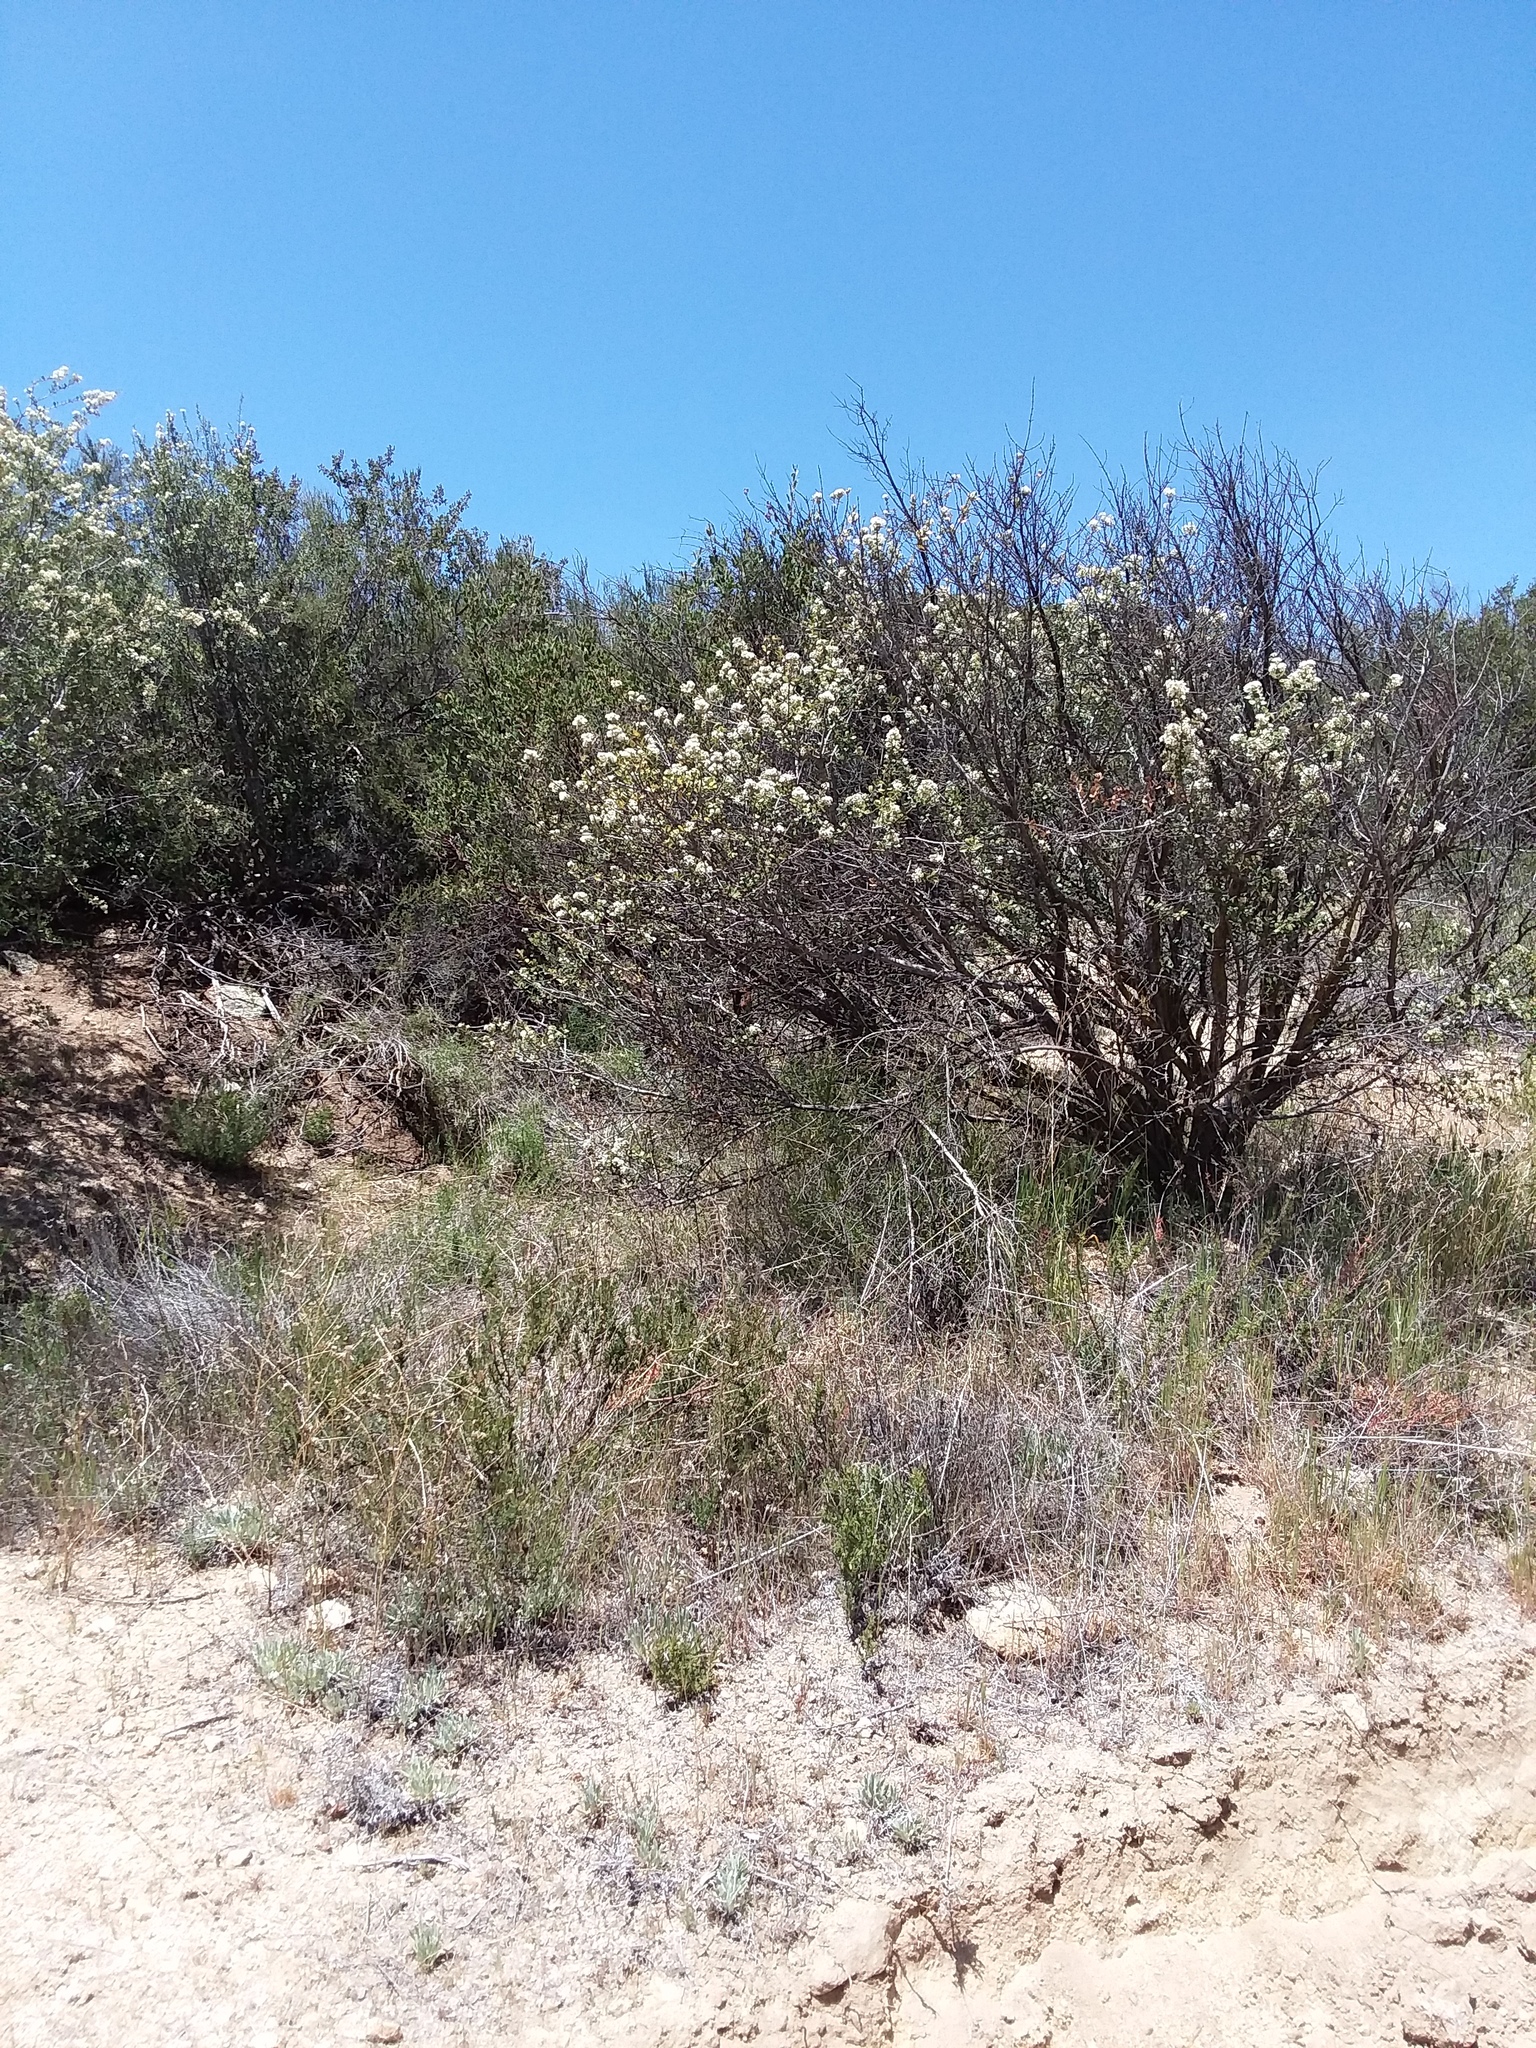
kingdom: Plantae
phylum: Tracheophyta
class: Magnoliopsida
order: Rosales
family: Rhamnaceae
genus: Ceanothus
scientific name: Ceanothus perplexans
